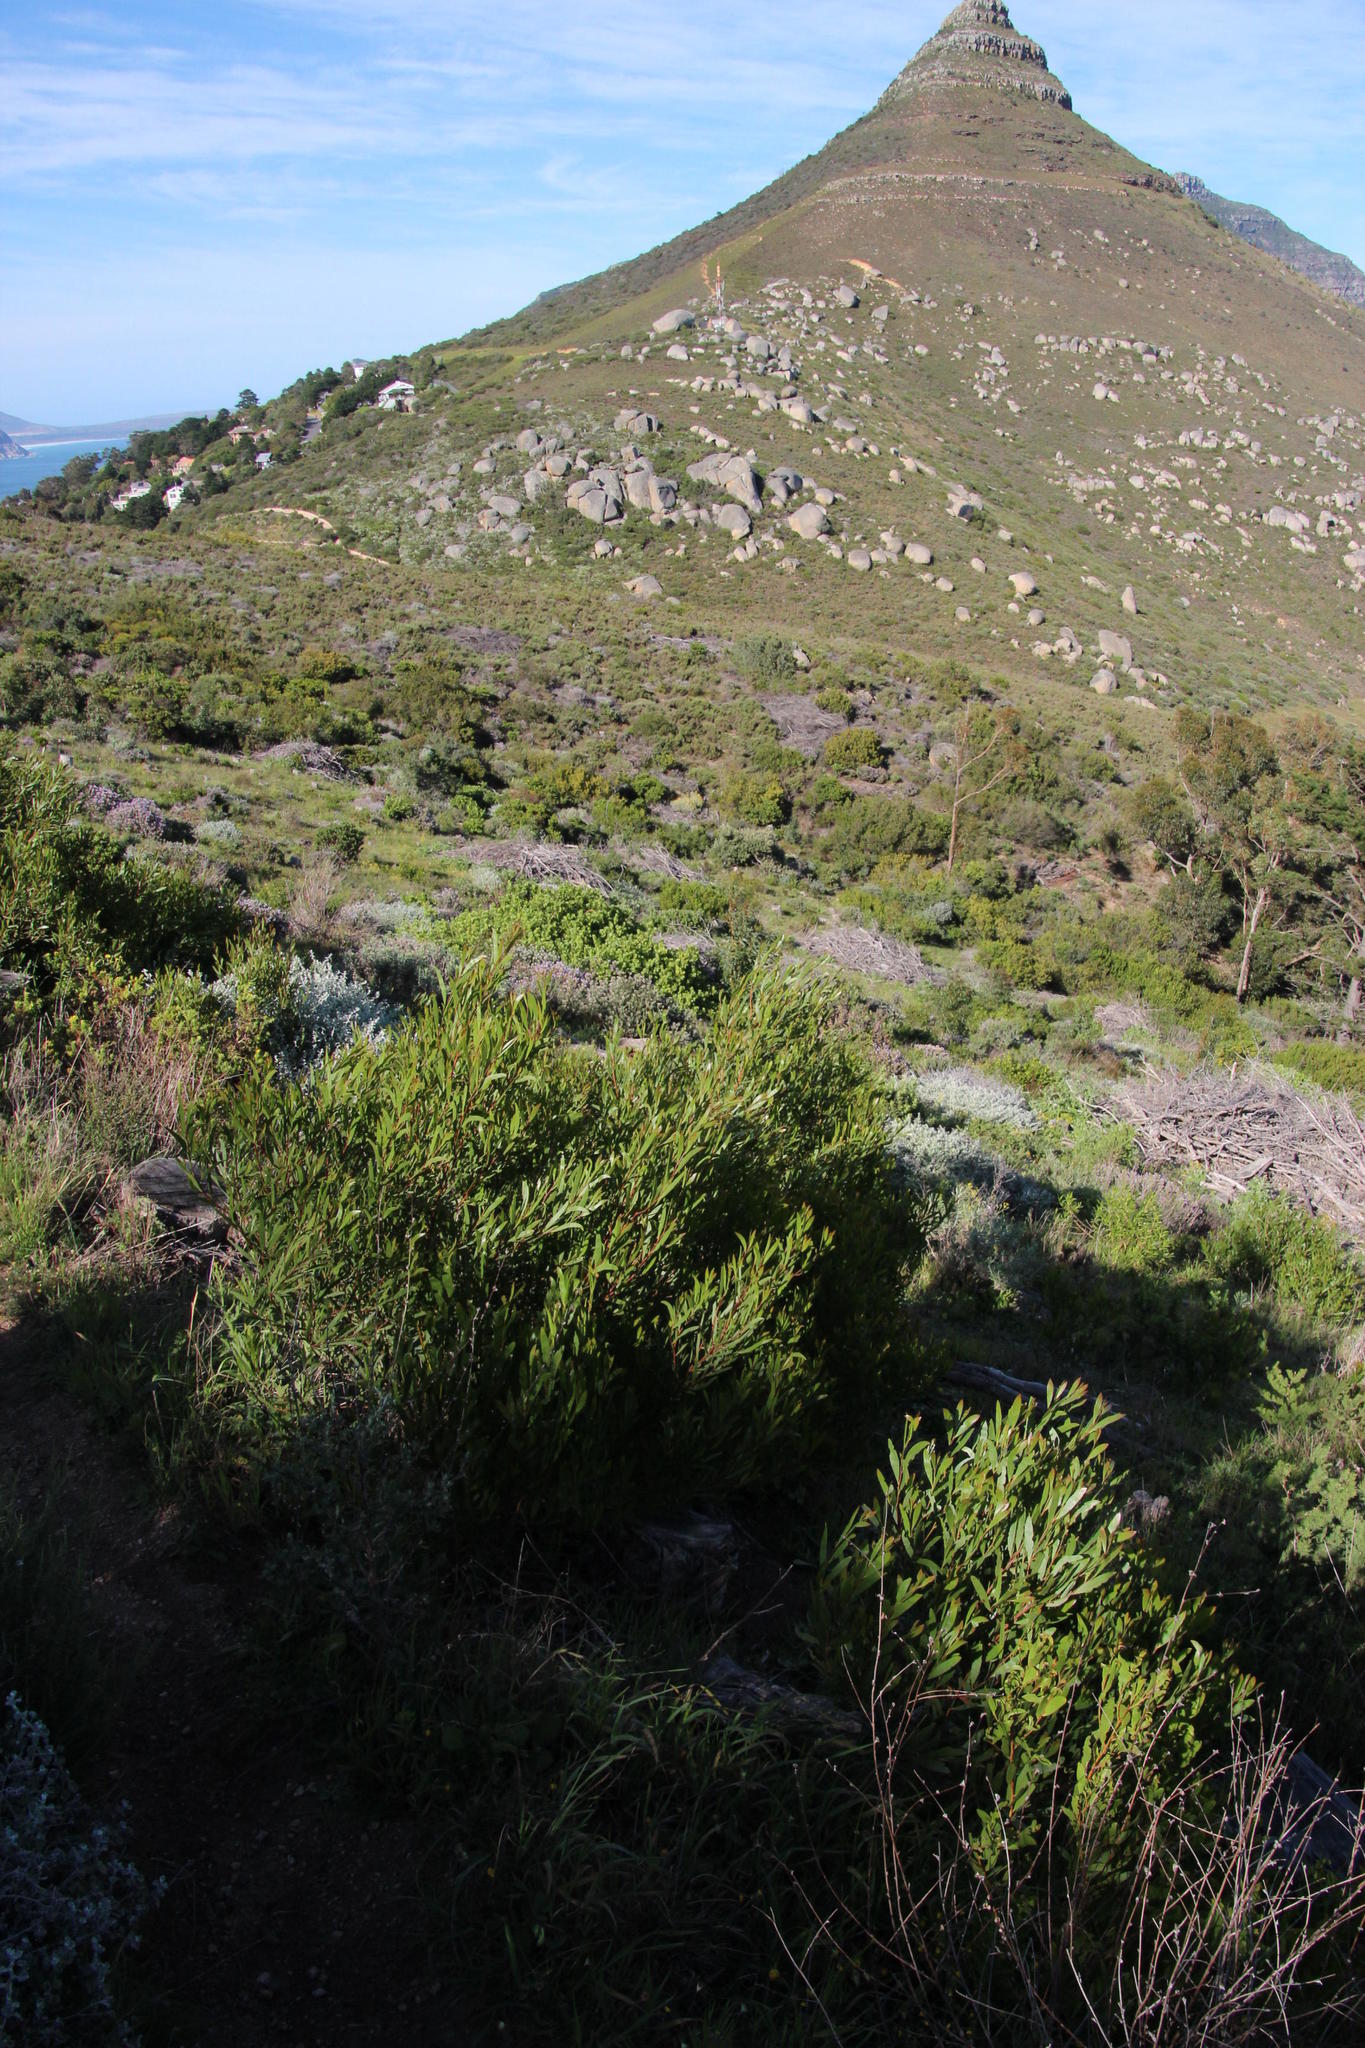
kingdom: Plantae
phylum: Tracheophyta
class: Magnoliopsida
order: Fabales
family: Fabaceae
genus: Acacia
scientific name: Acacia cyclops
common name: Coastal wattle
